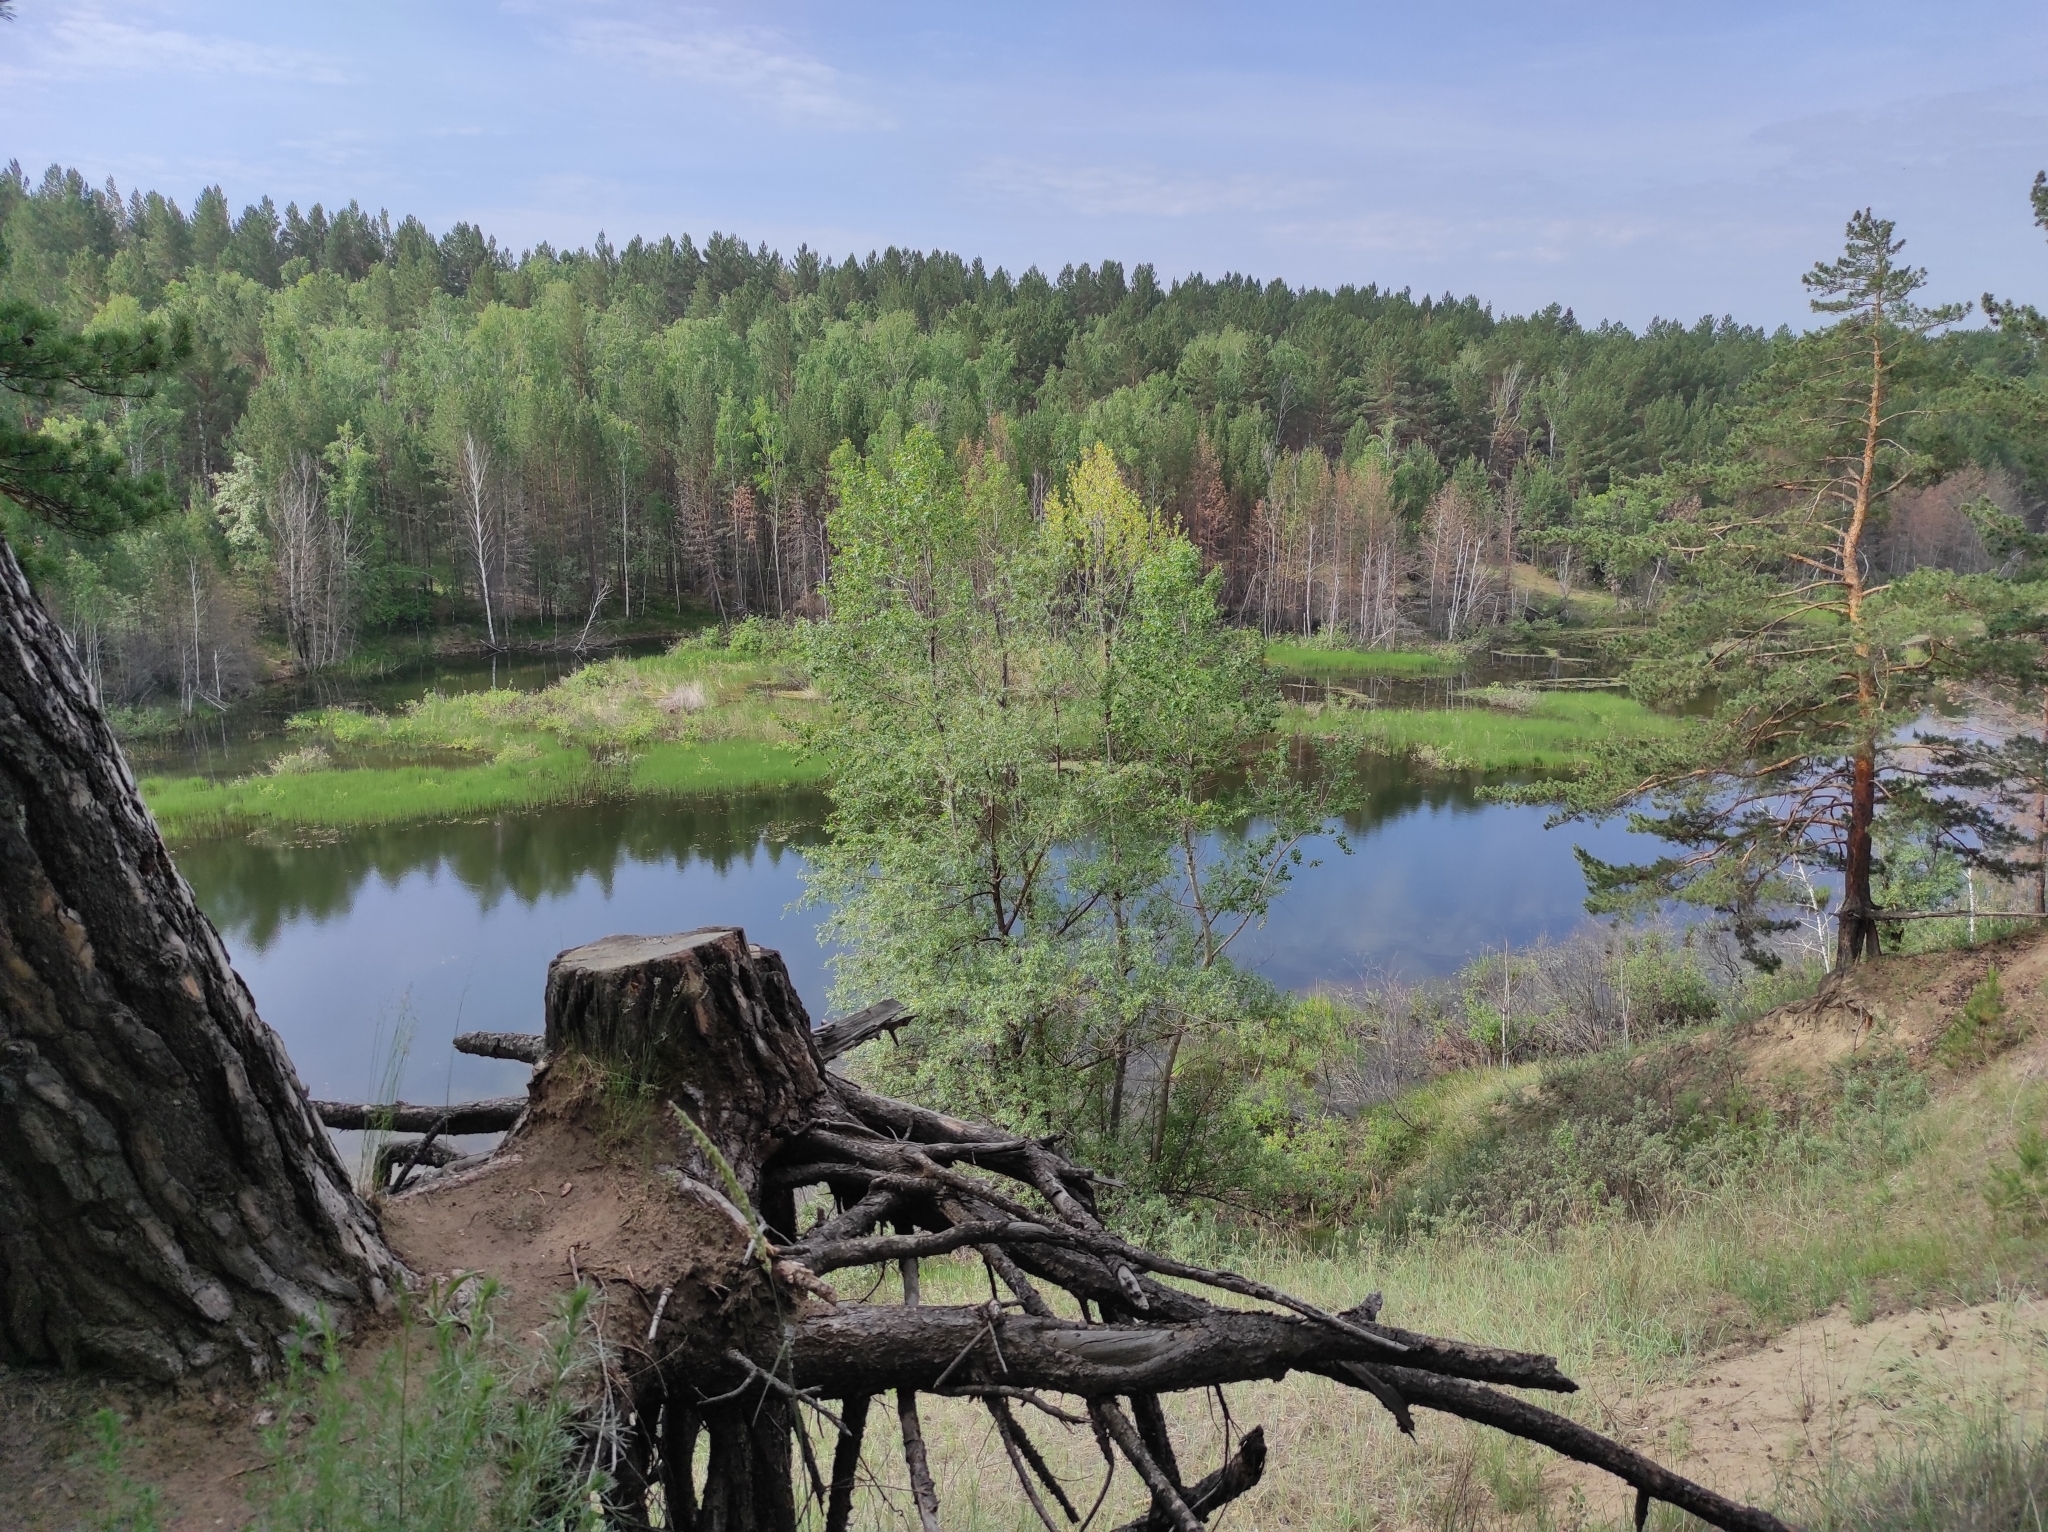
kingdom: Plantae
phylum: Tracheophyta
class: Pinopsida
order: Pinales
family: Pinaceae
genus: Pinus
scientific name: Pinus sylvestris
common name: Scots pine
